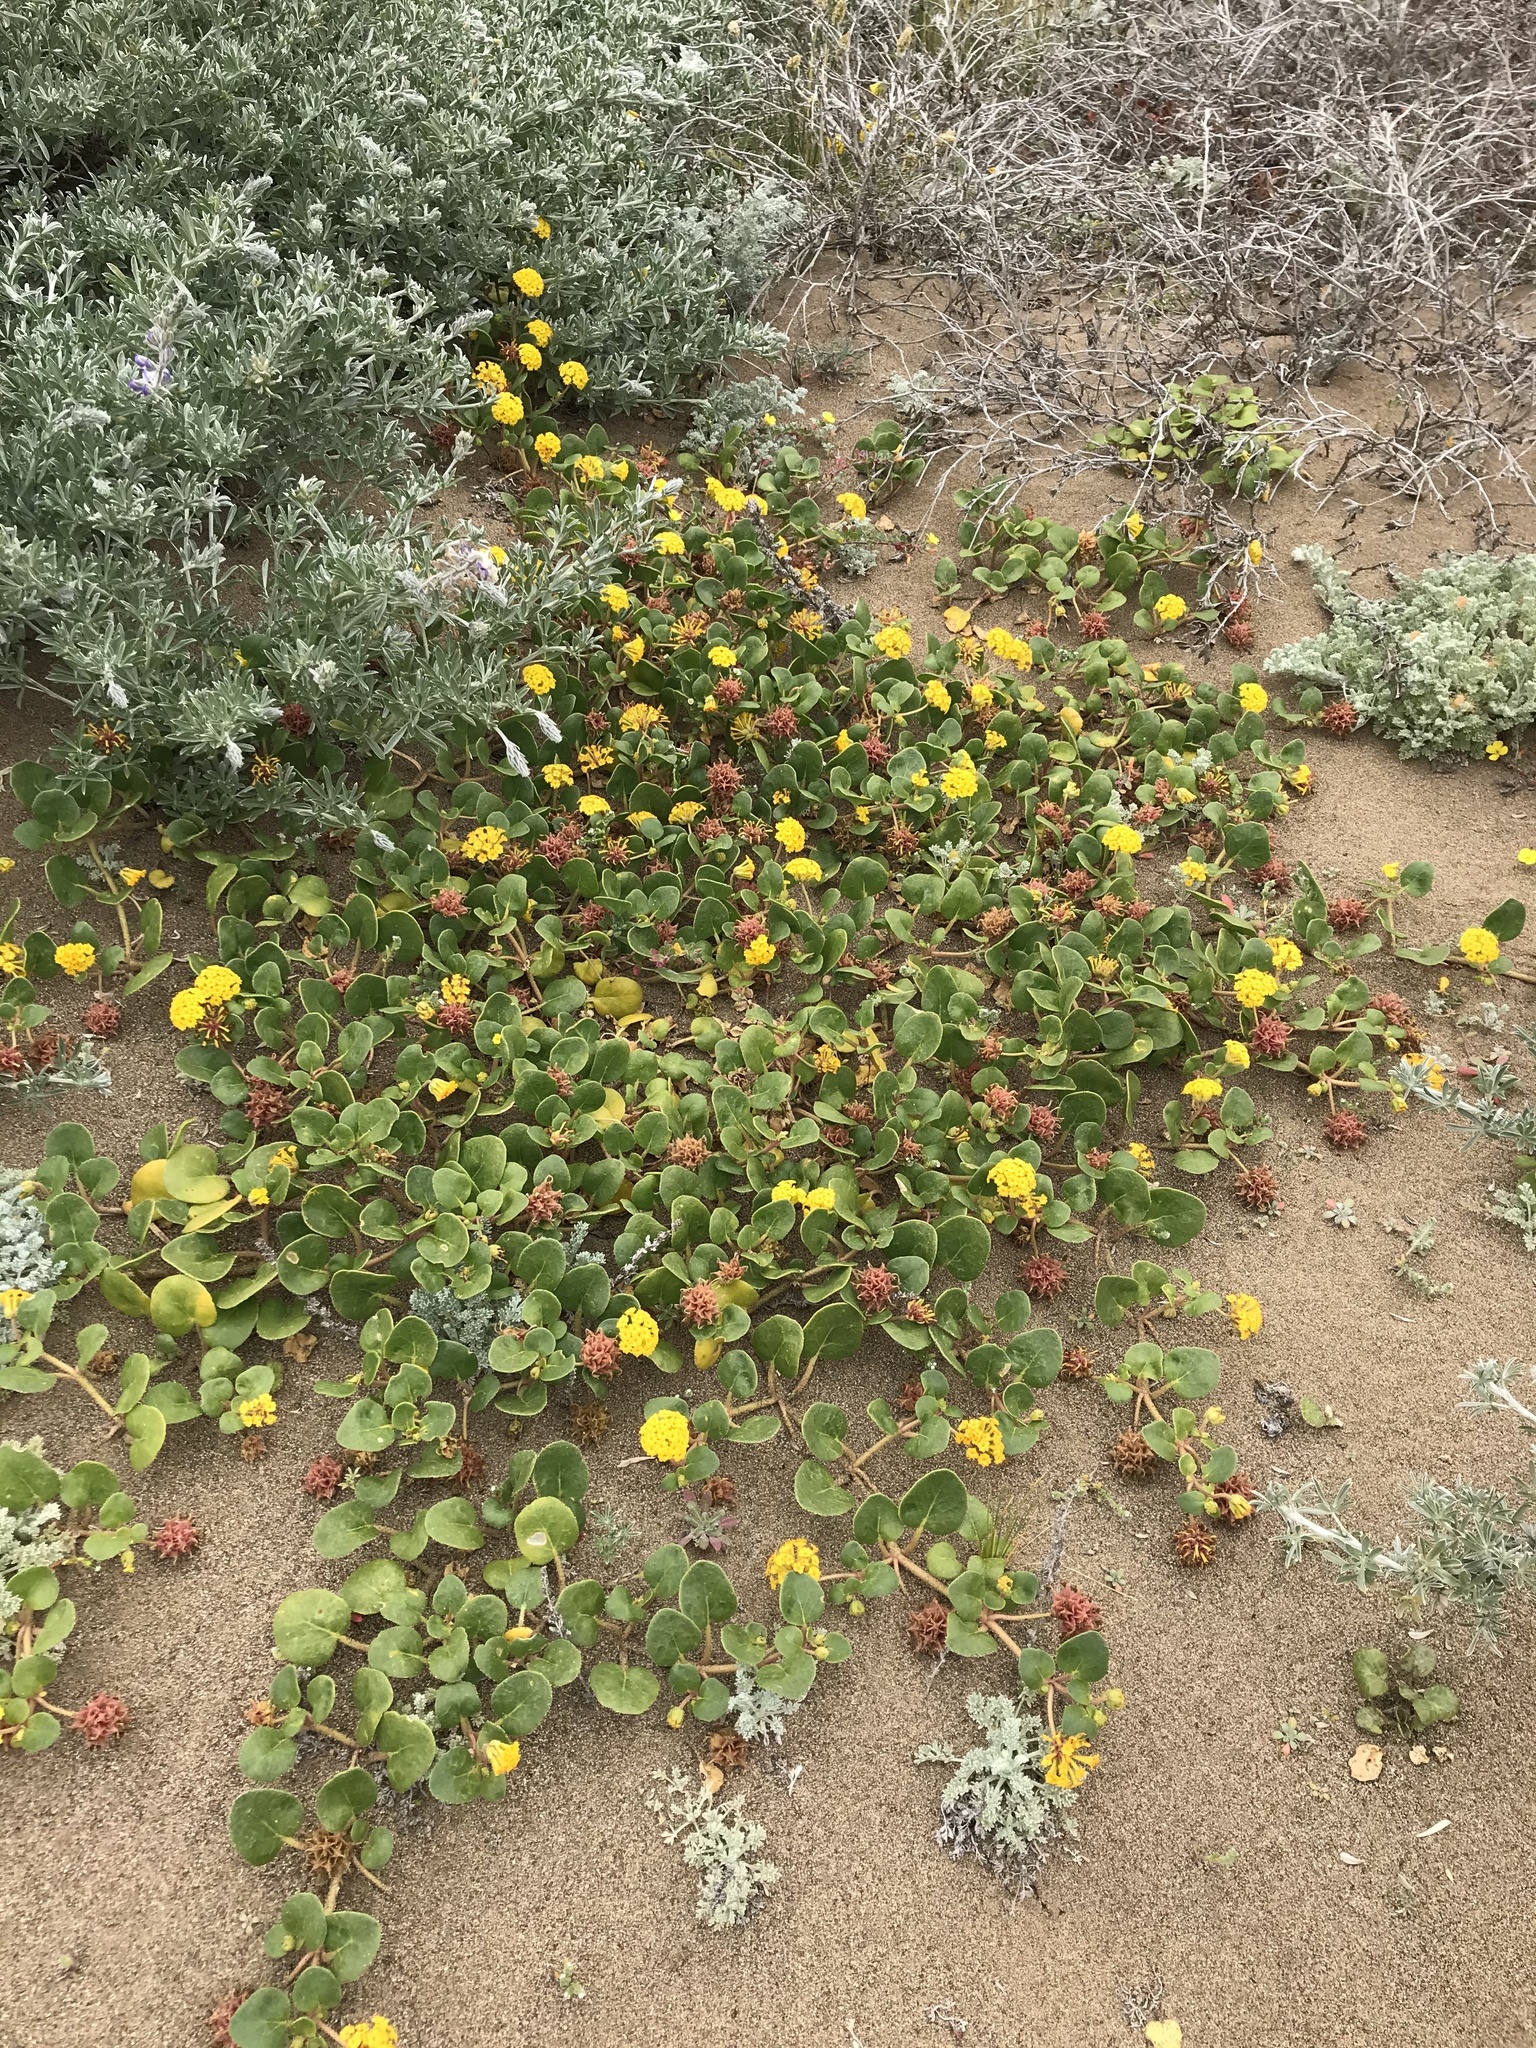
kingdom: Plantae
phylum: Tracheophyta
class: Magnoliopsida
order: Caryophyllales
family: Nyctaginaceae
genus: Abronia
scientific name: Abronia latifolia
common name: Yellow sand-verbena
